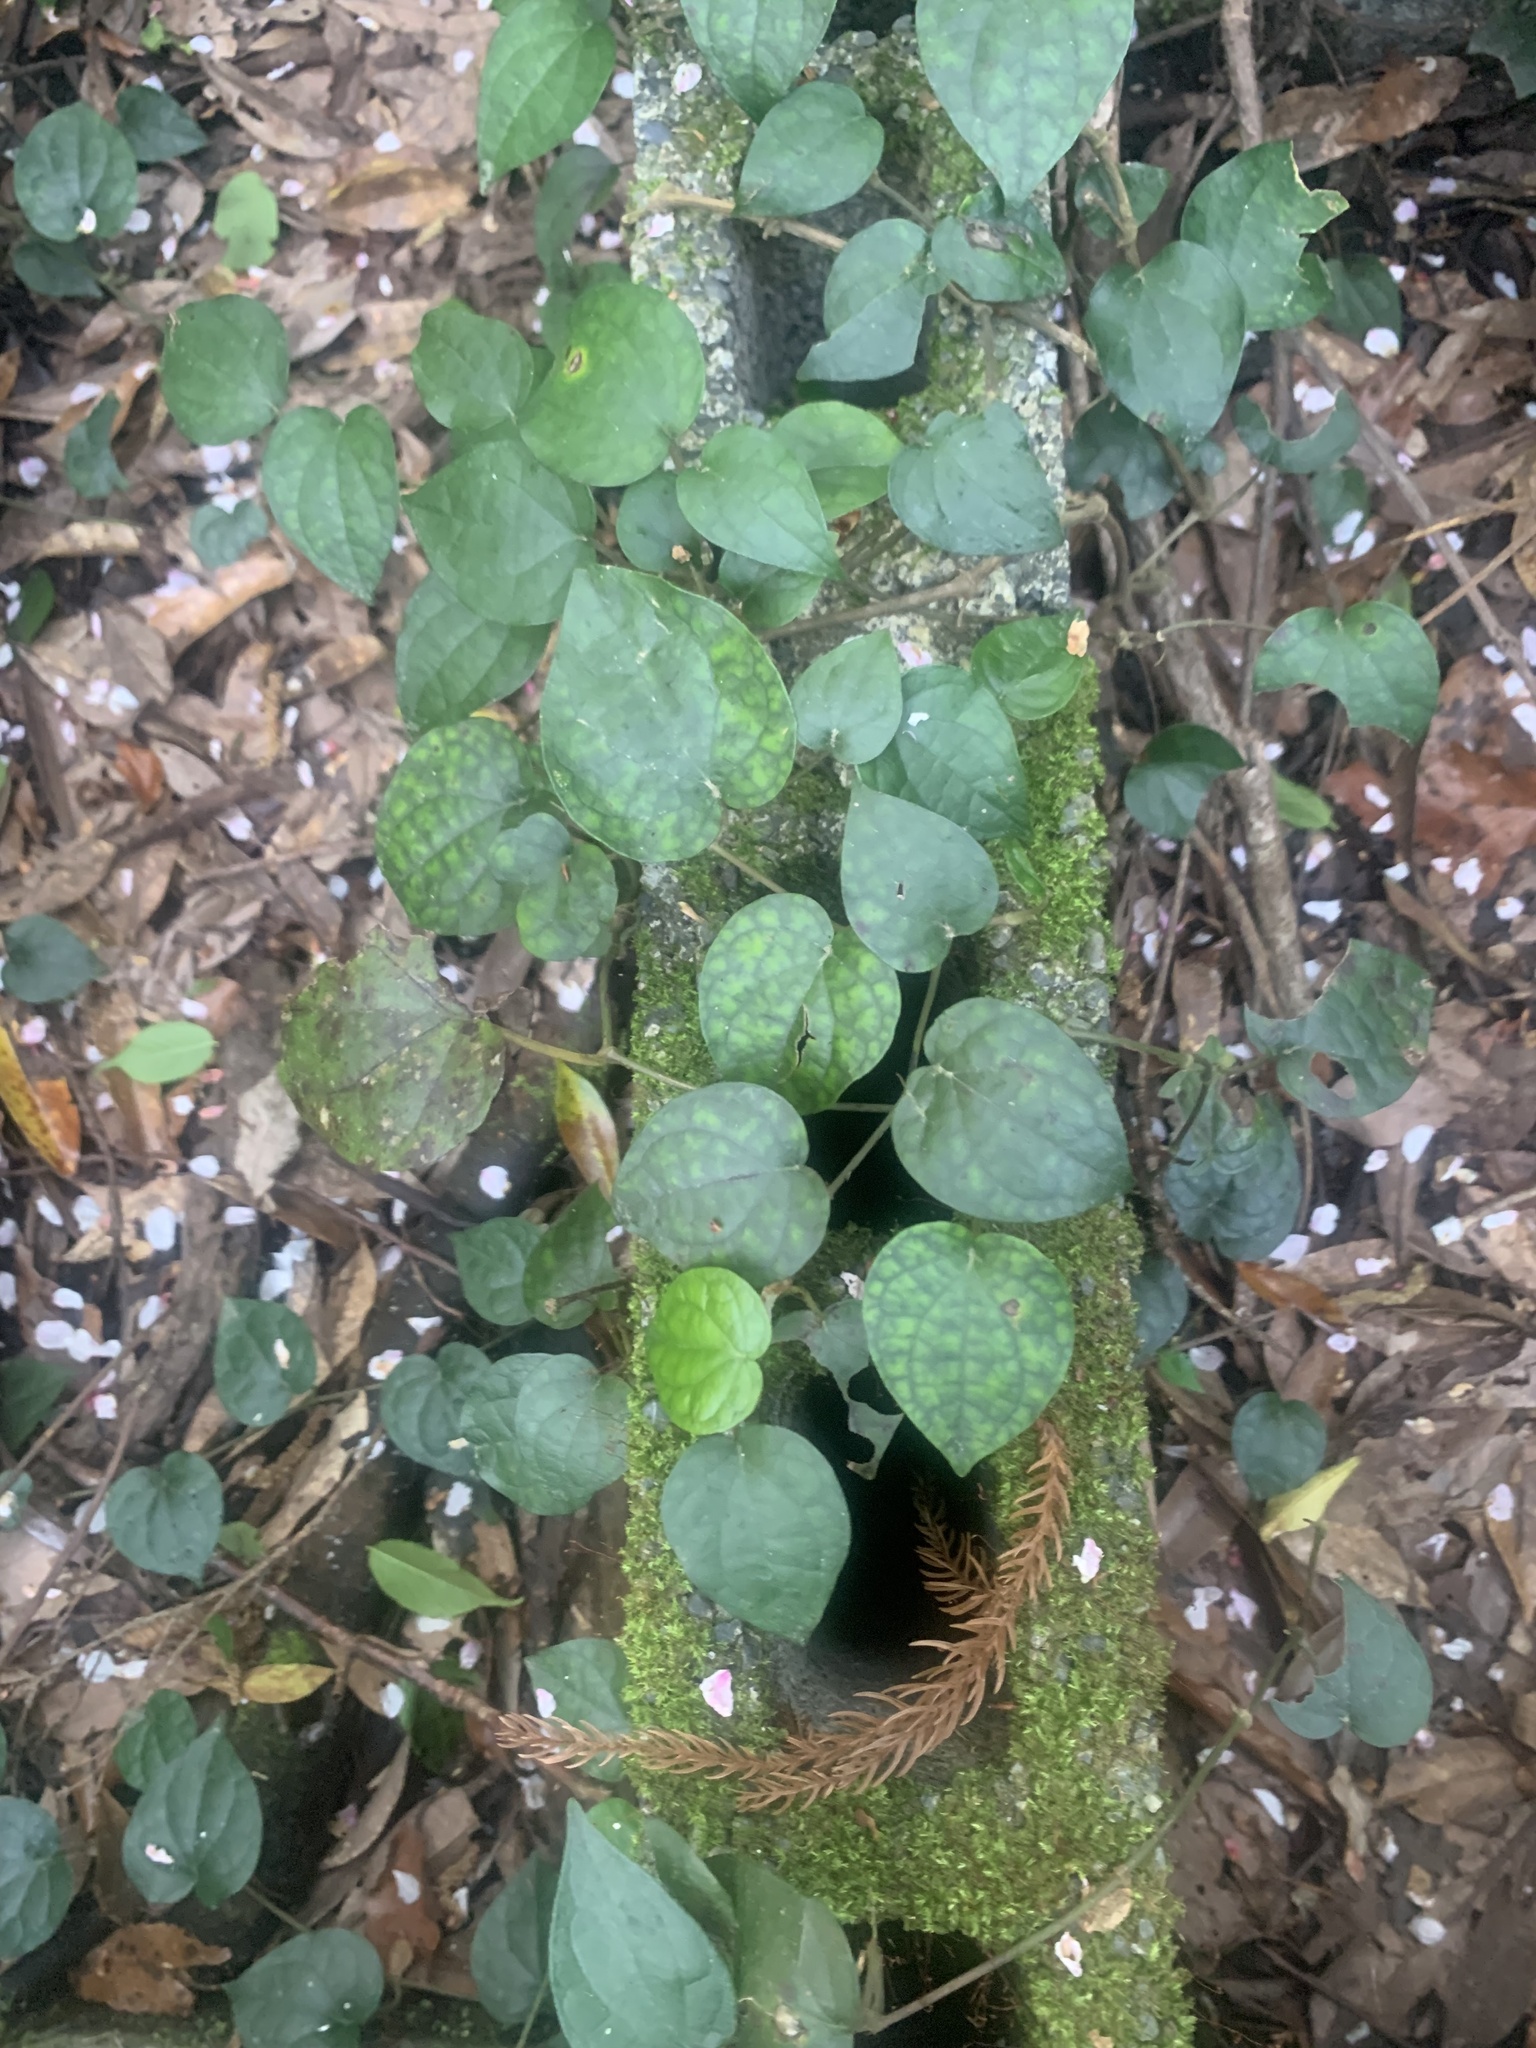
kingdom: Plantae
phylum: Tracheophyta
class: Magnoliopsida
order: Piperales
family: Piperaceae
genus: Piper
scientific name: Piper kadsura
